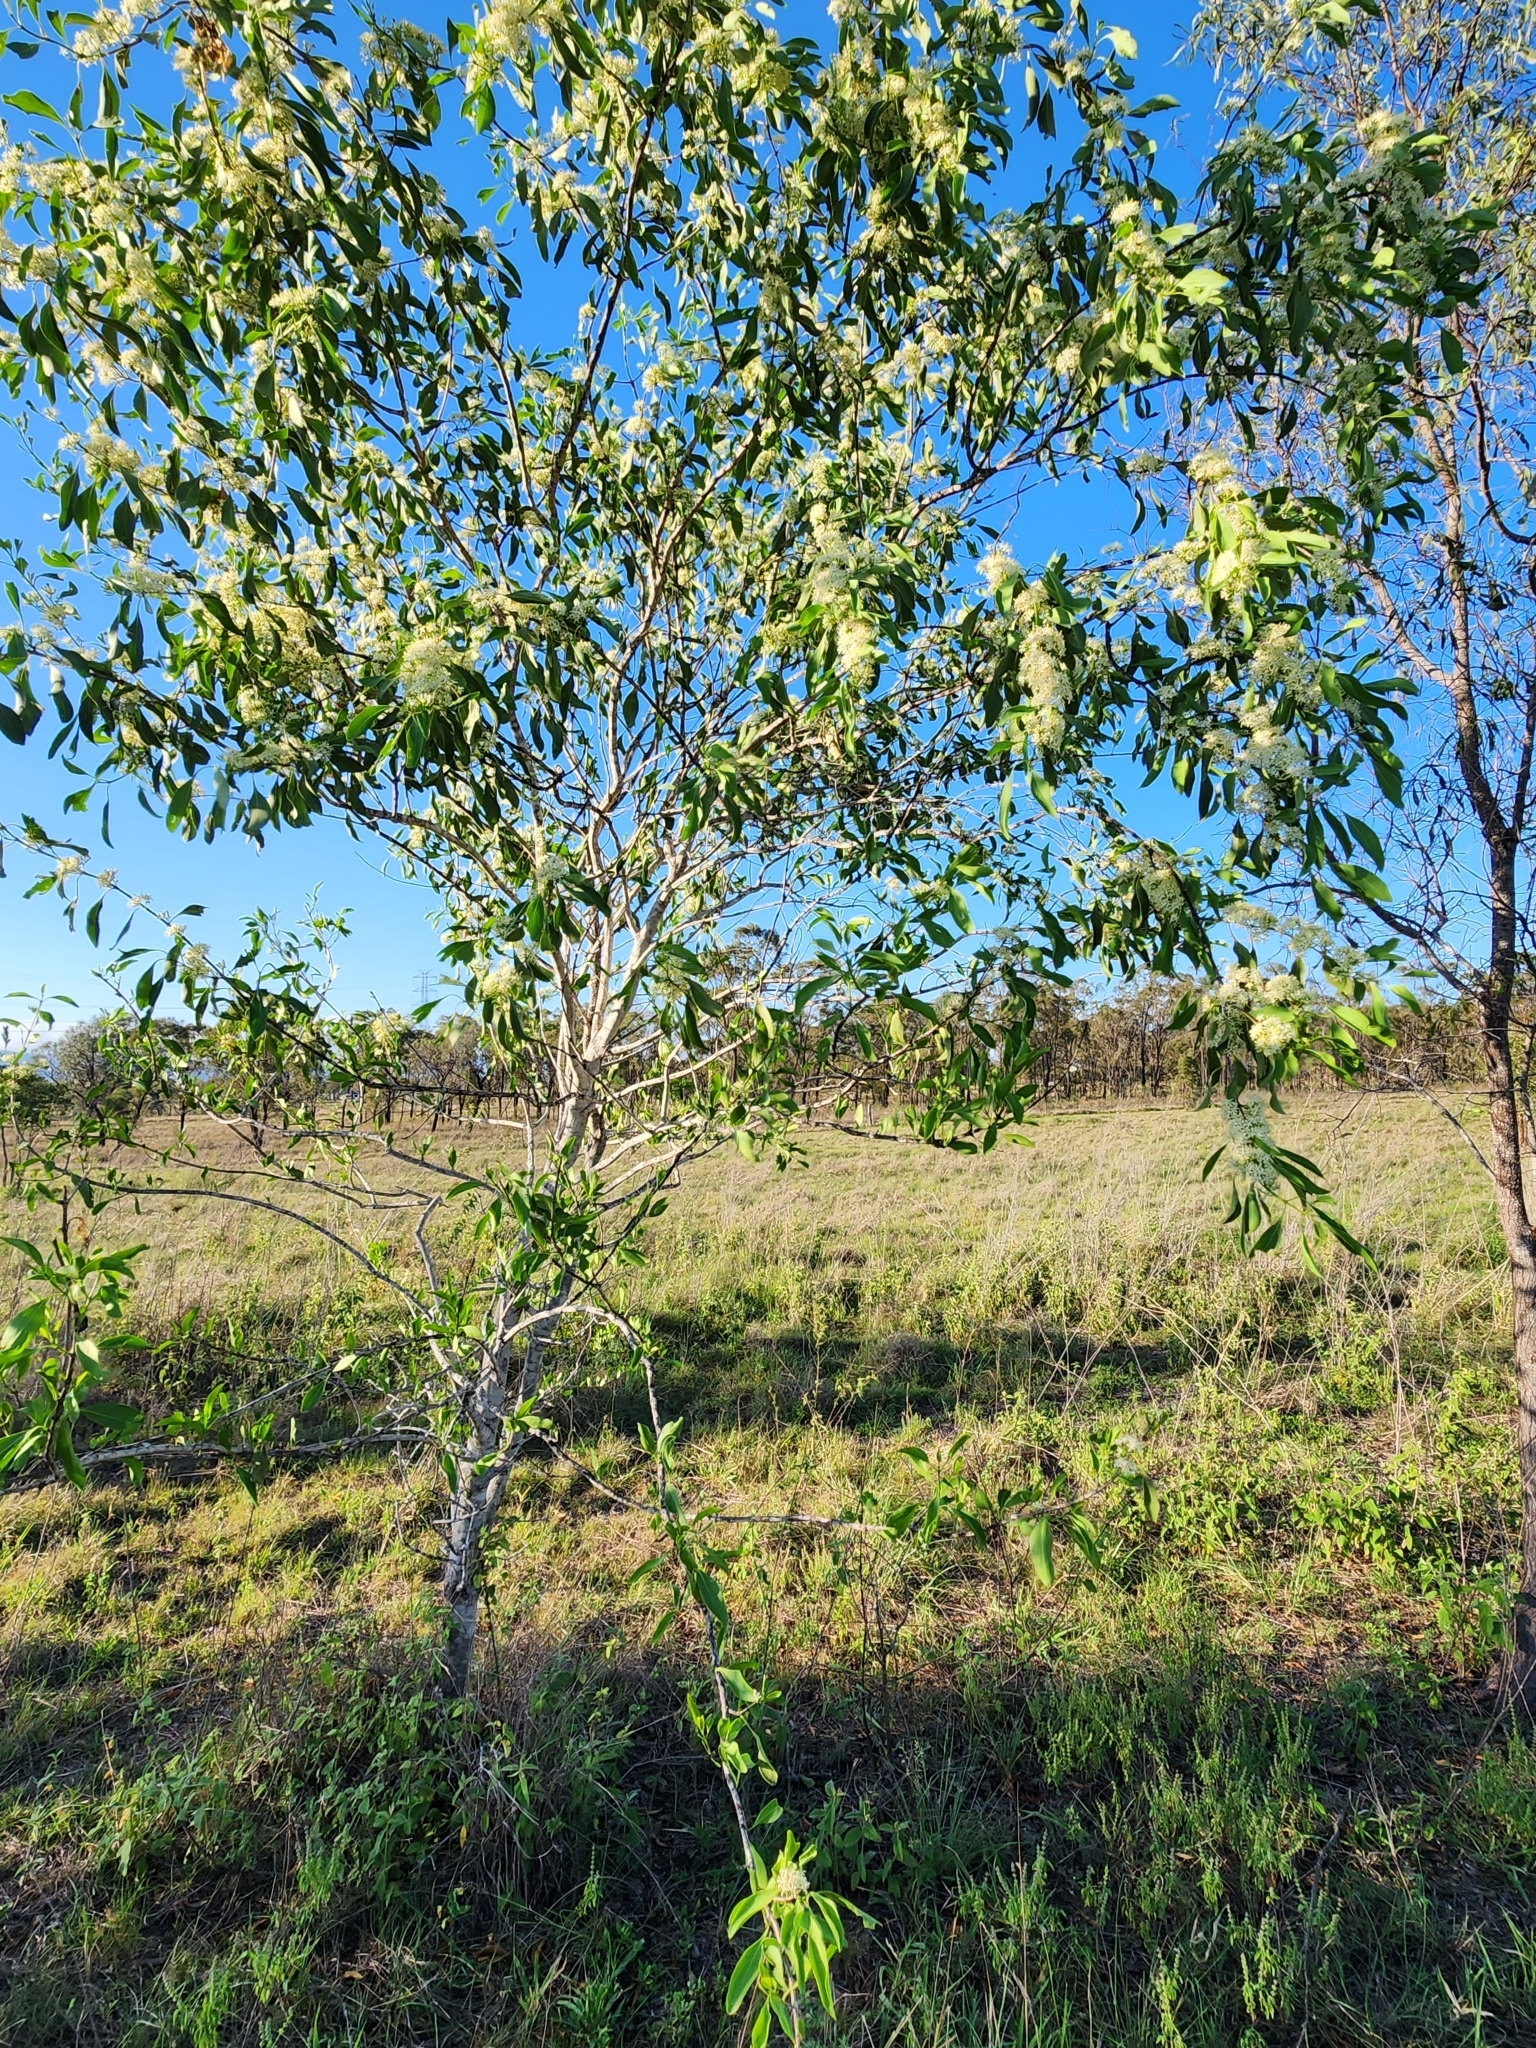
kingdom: Plantae
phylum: Tracheophyta
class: Magnoliopsida
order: Gentianales
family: Rubiaceae
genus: Psydrax
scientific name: Psydrax longipes
